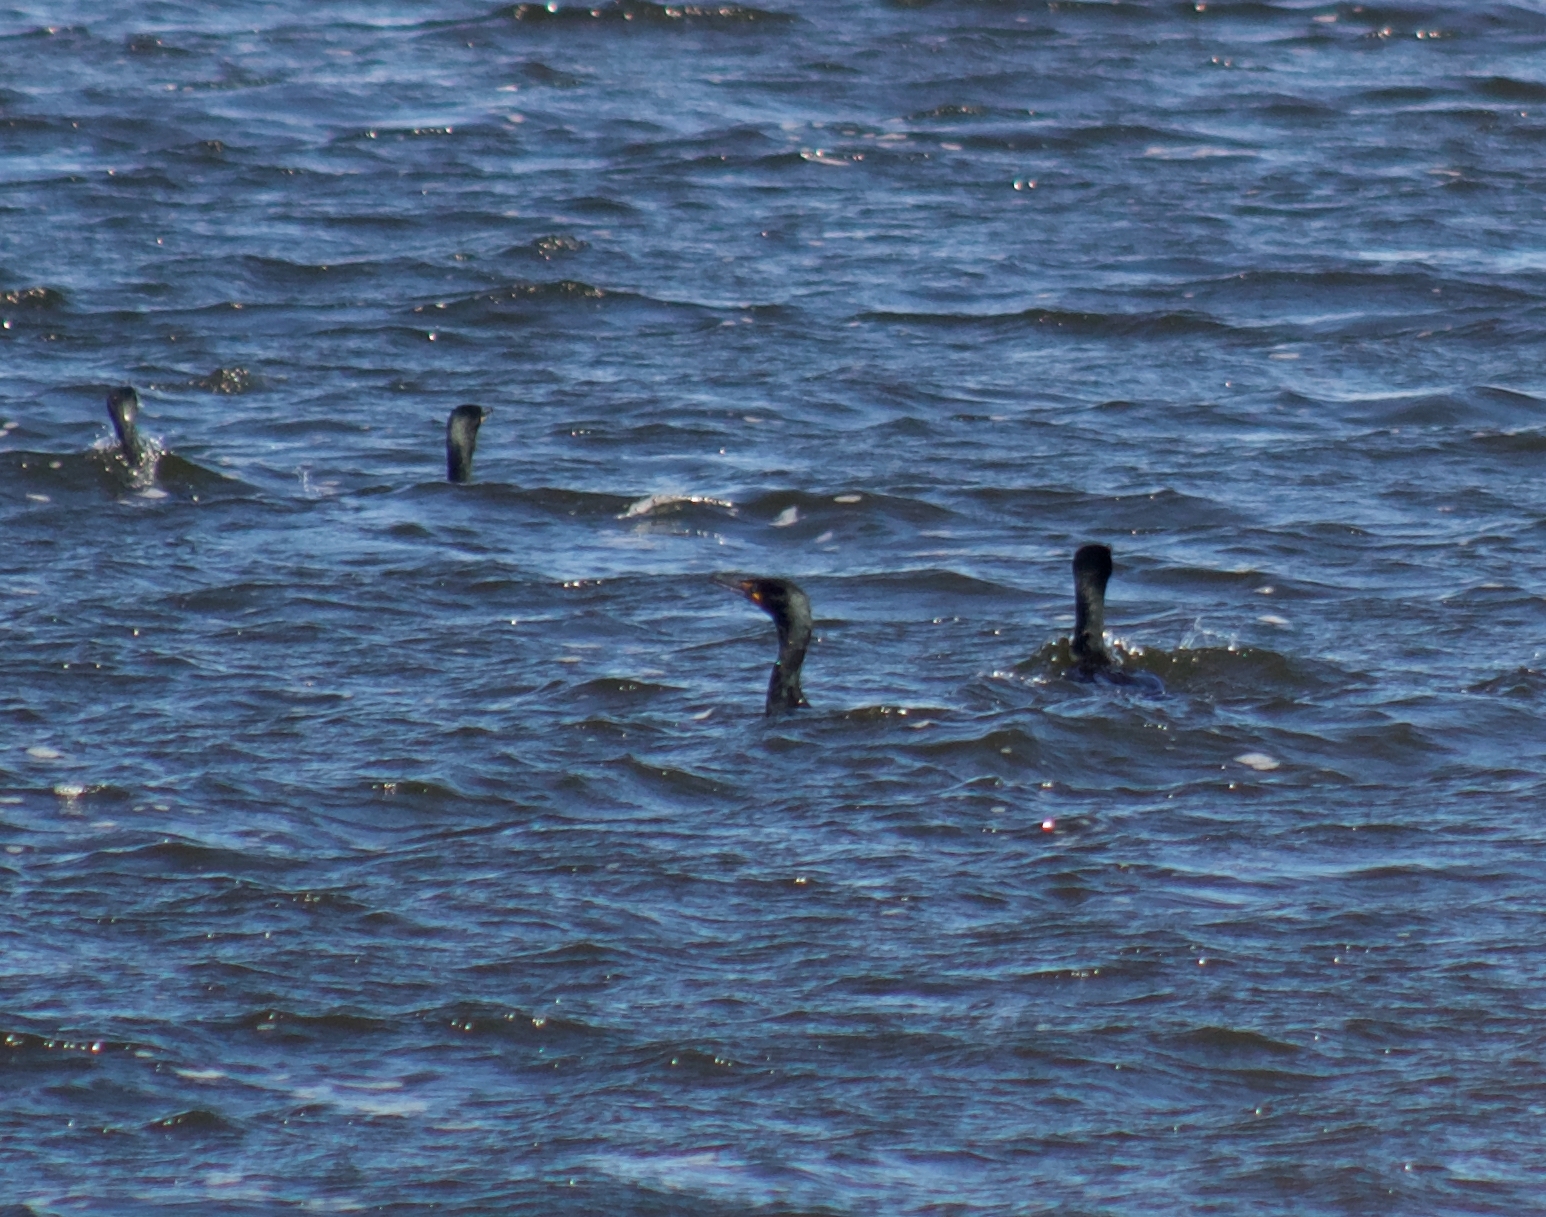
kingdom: Animalia
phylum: Chordata
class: Aves
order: Suliformes
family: Phalacrocoracidae
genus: Phalacrocorax
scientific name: Phalacrocorax auritus
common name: Double-crested cormorant
